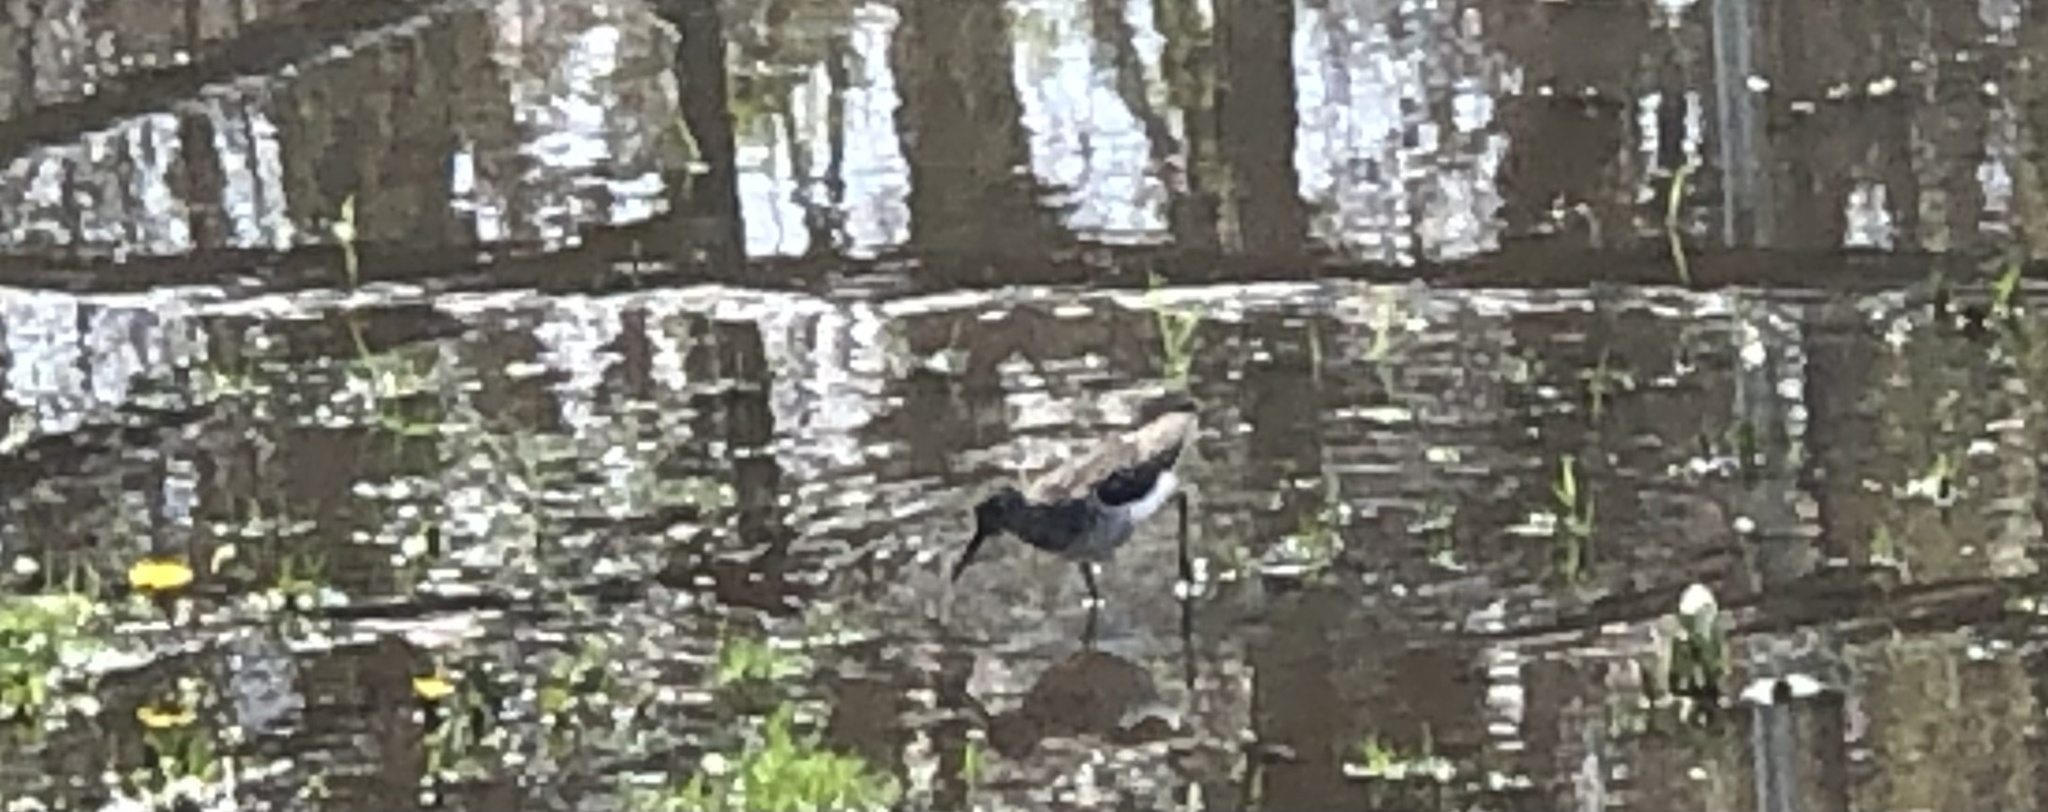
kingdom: Animalia
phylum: Chordata
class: Aves
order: Charadriiformes
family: Scolopacidae
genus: Tringa
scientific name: Tringa solitaria
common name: Solitary sandpiper
